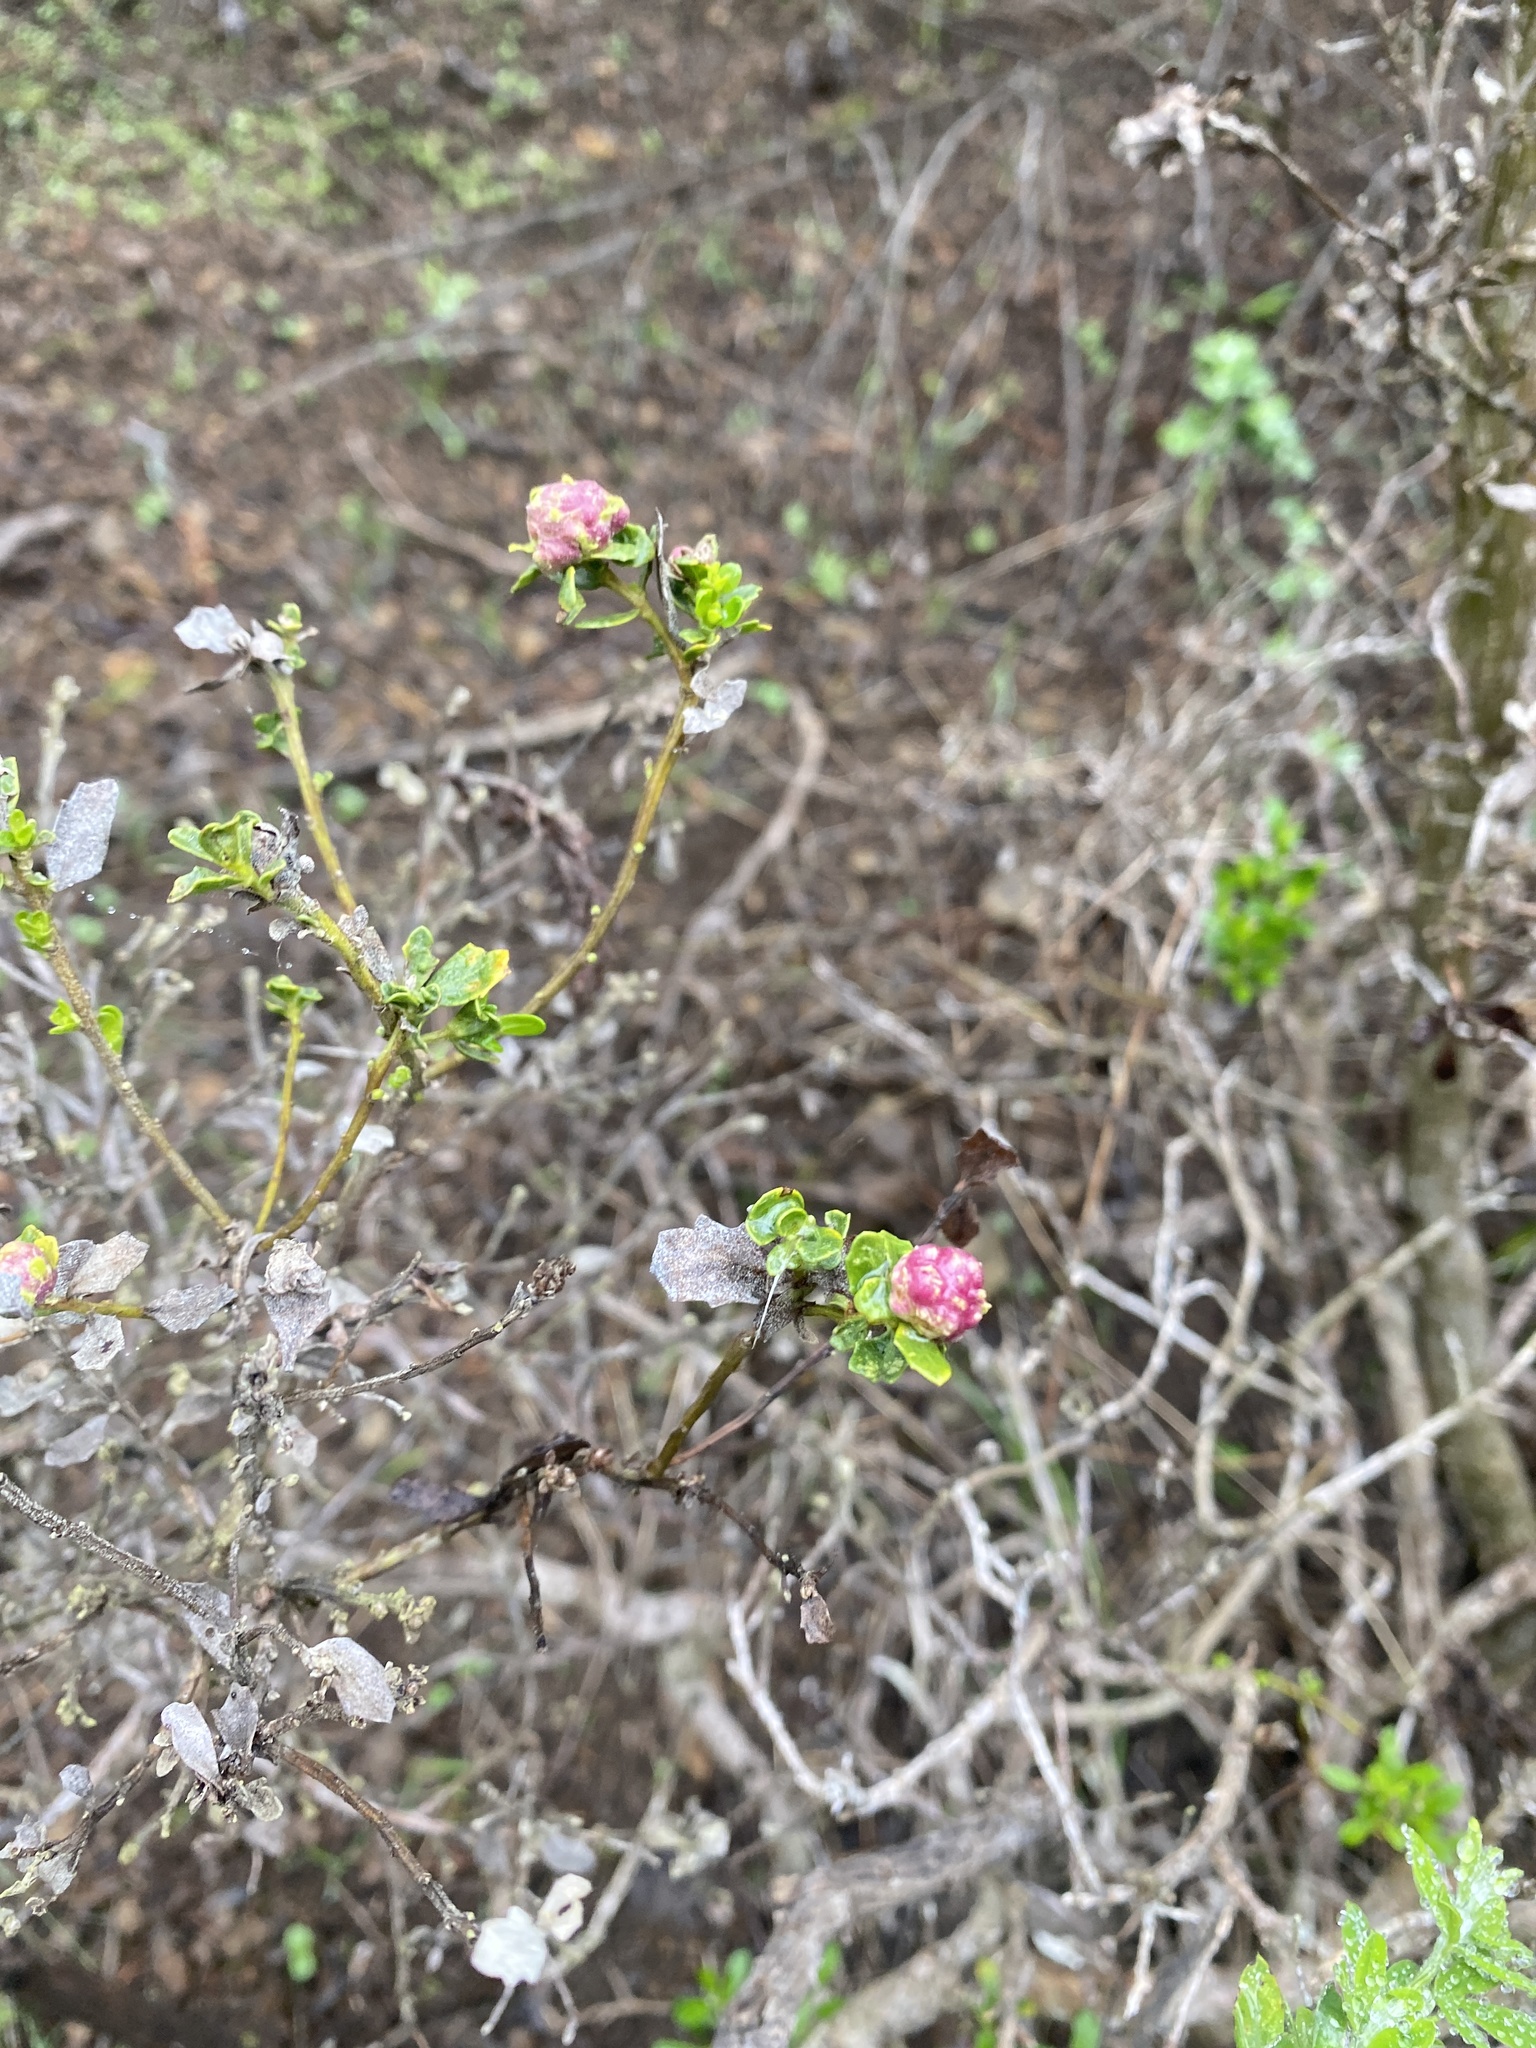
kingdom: Animalia
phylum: Arthropoda
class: Insecta
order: Diptera
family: Cecidomyiidae
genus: Rhopalomyia
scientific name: Rhopalomyia californica
